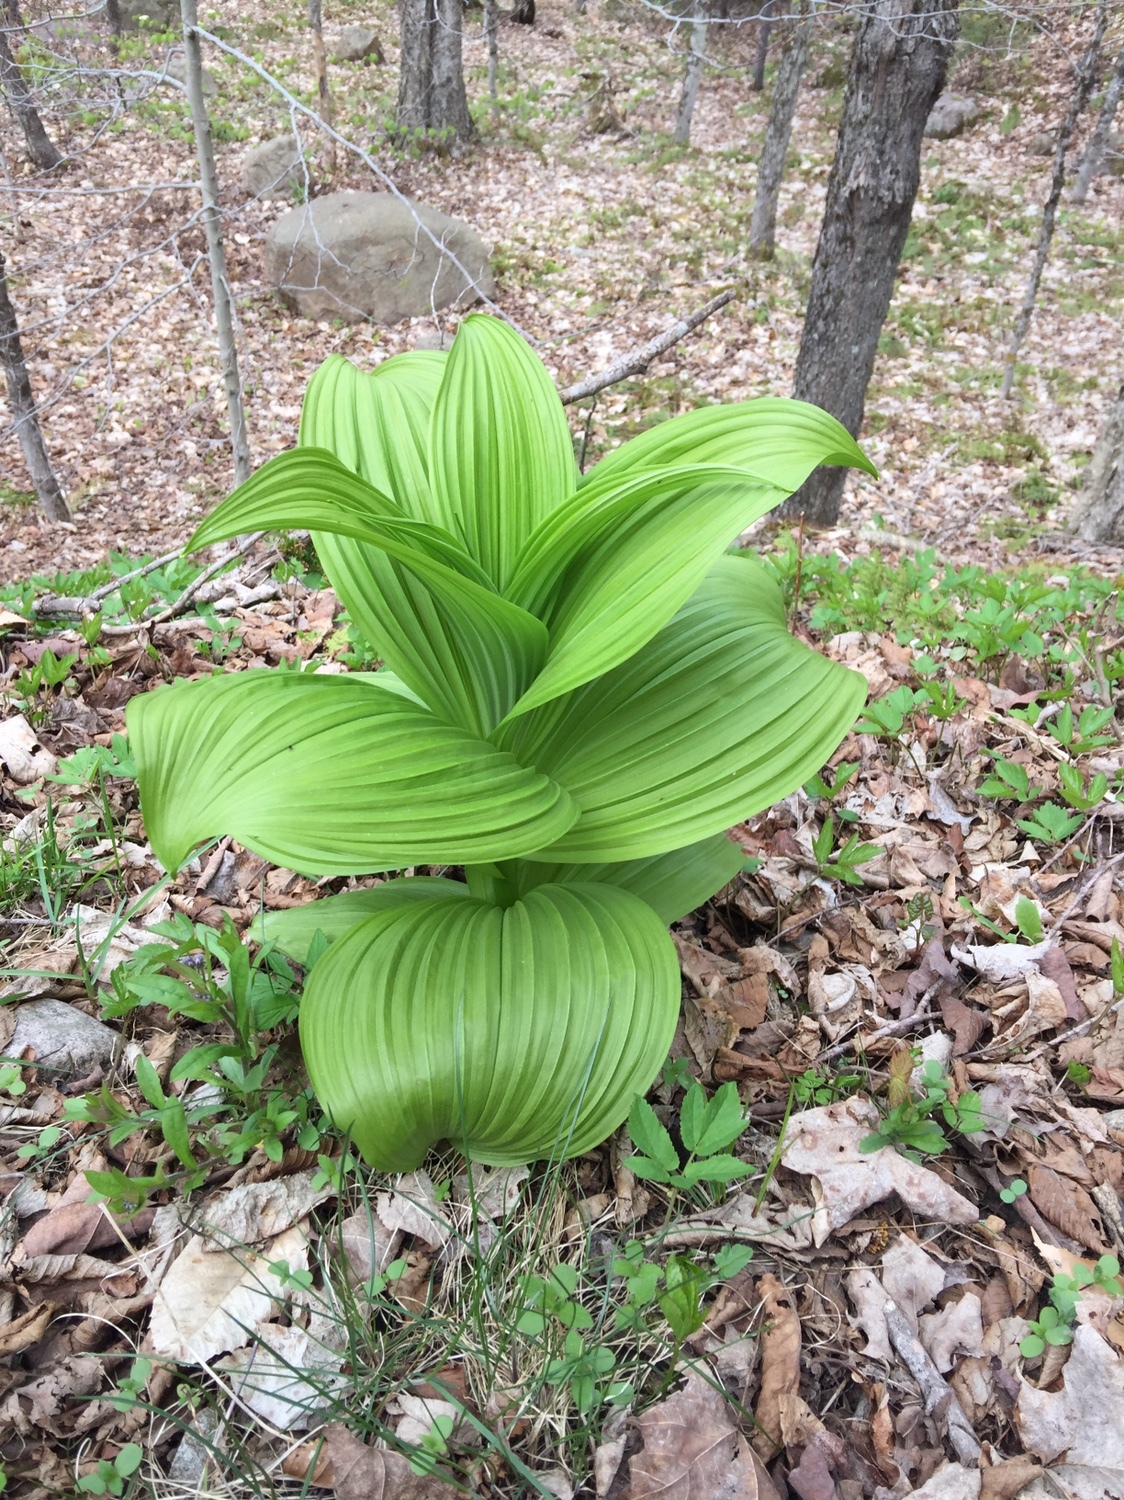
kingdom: Plantae
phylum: Tracheophyta
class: Liliopsida
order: Liliales
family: Melanthiaceae
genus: Veratrum
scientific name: Veratrum viride
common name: American false hellebore
